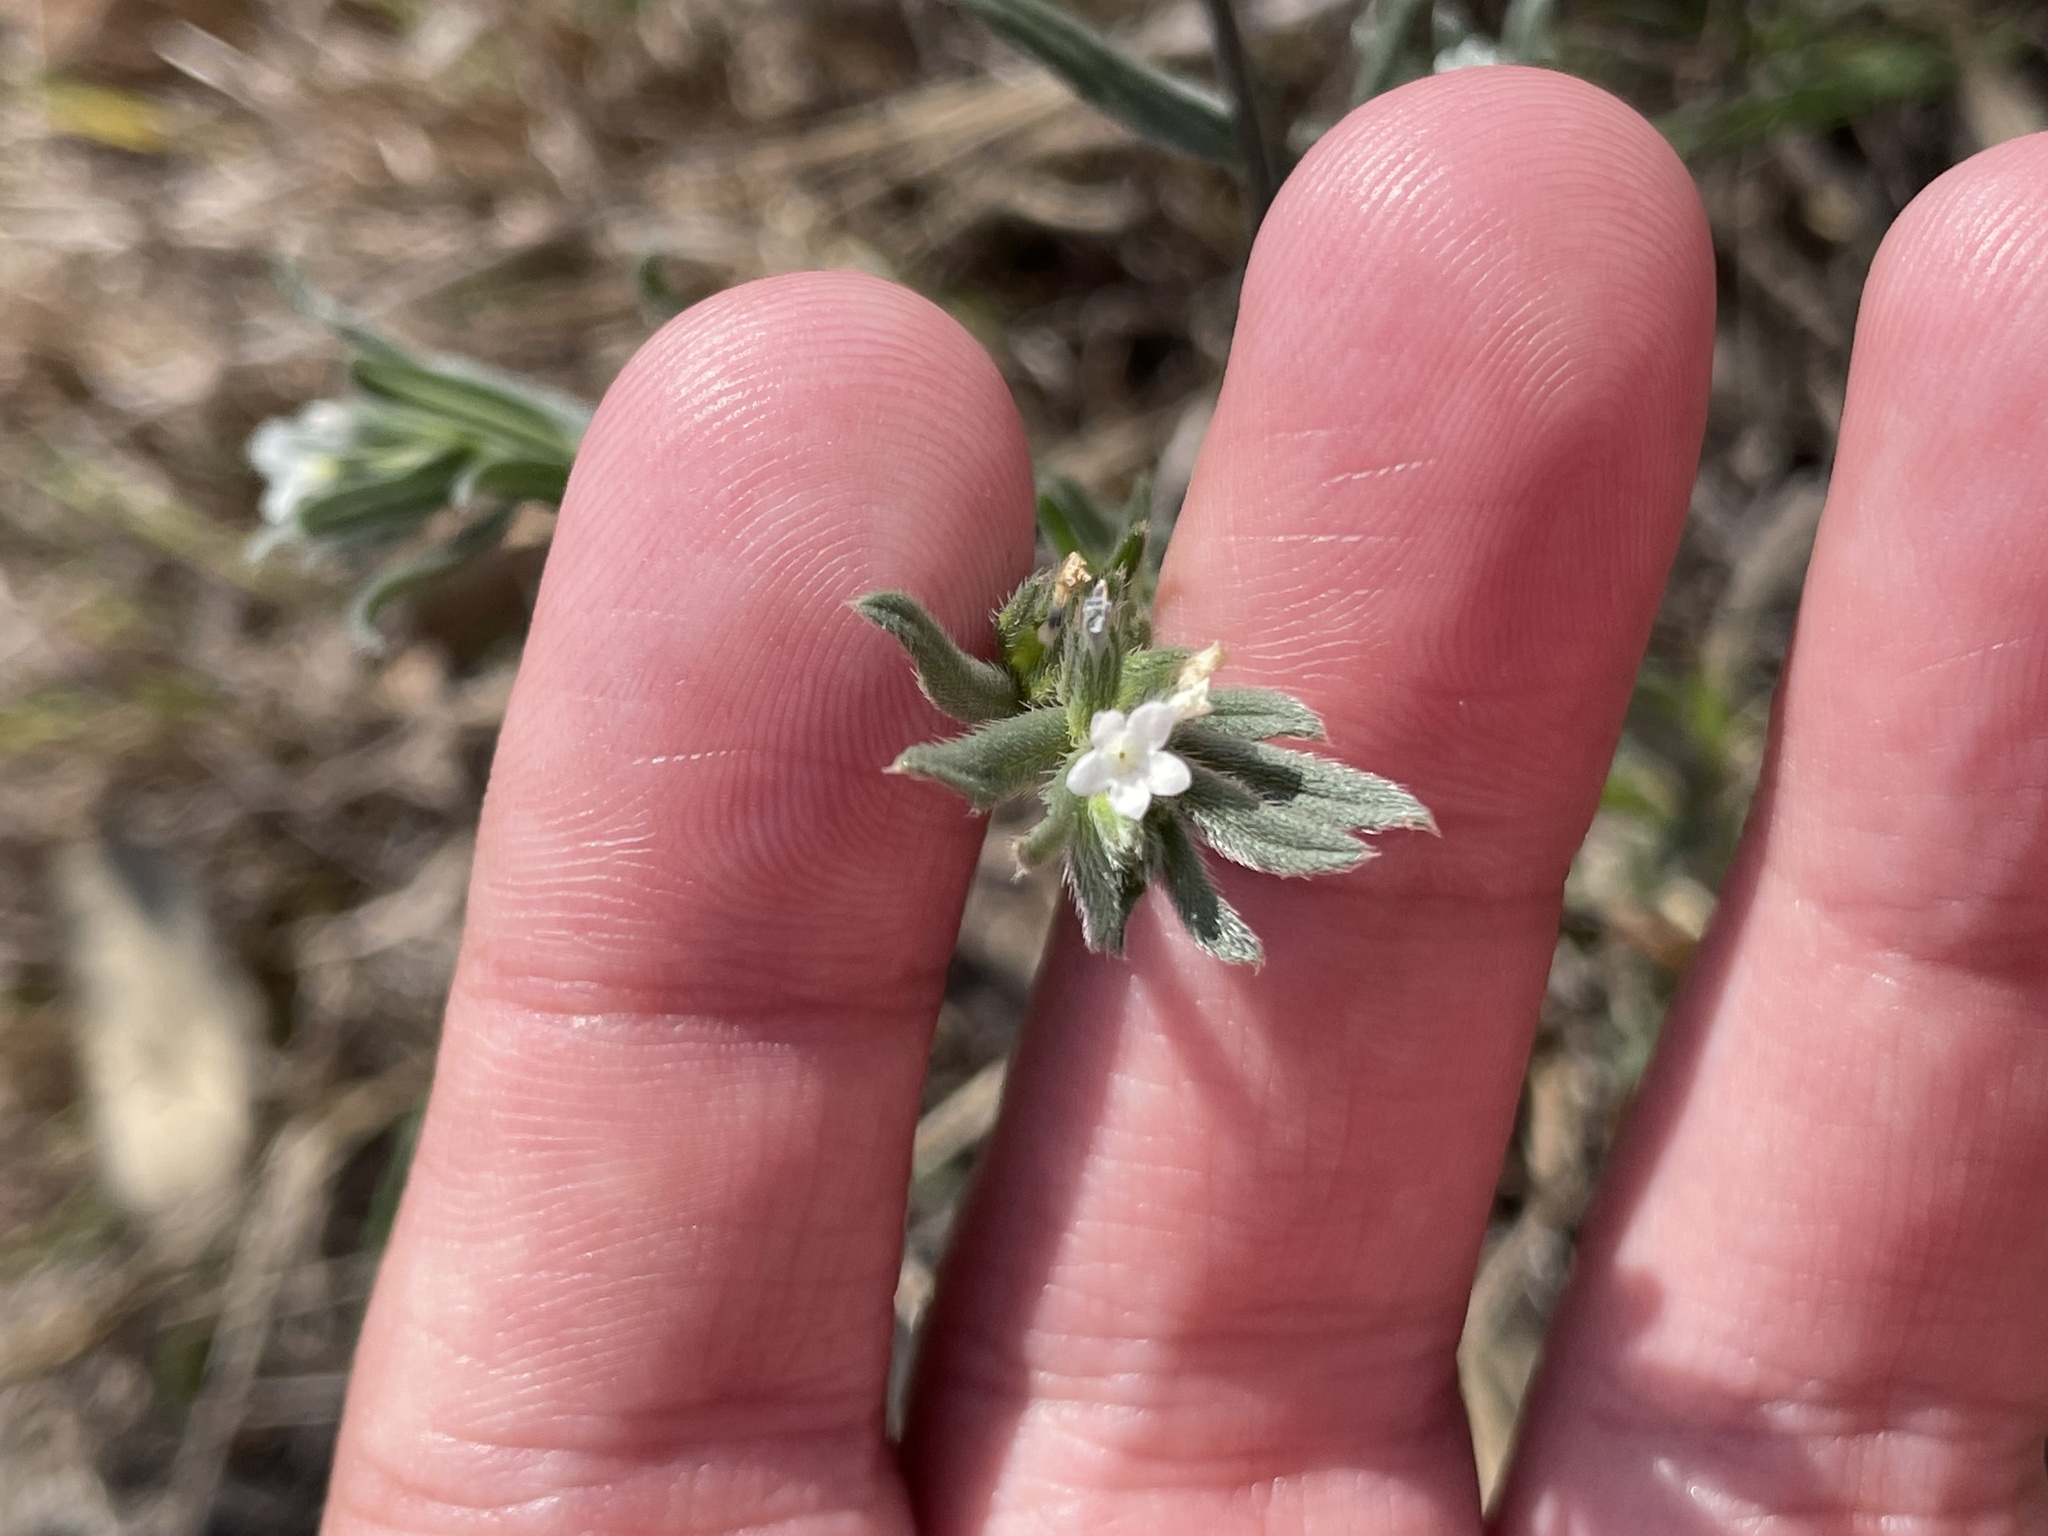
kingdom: Plantae
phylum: Tracheophyta
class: Magnoliopsida
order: Boraginales
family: Boraginaceae
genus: Buglossoides
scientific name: Buglossoides arvensis
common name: Corn gromwell
